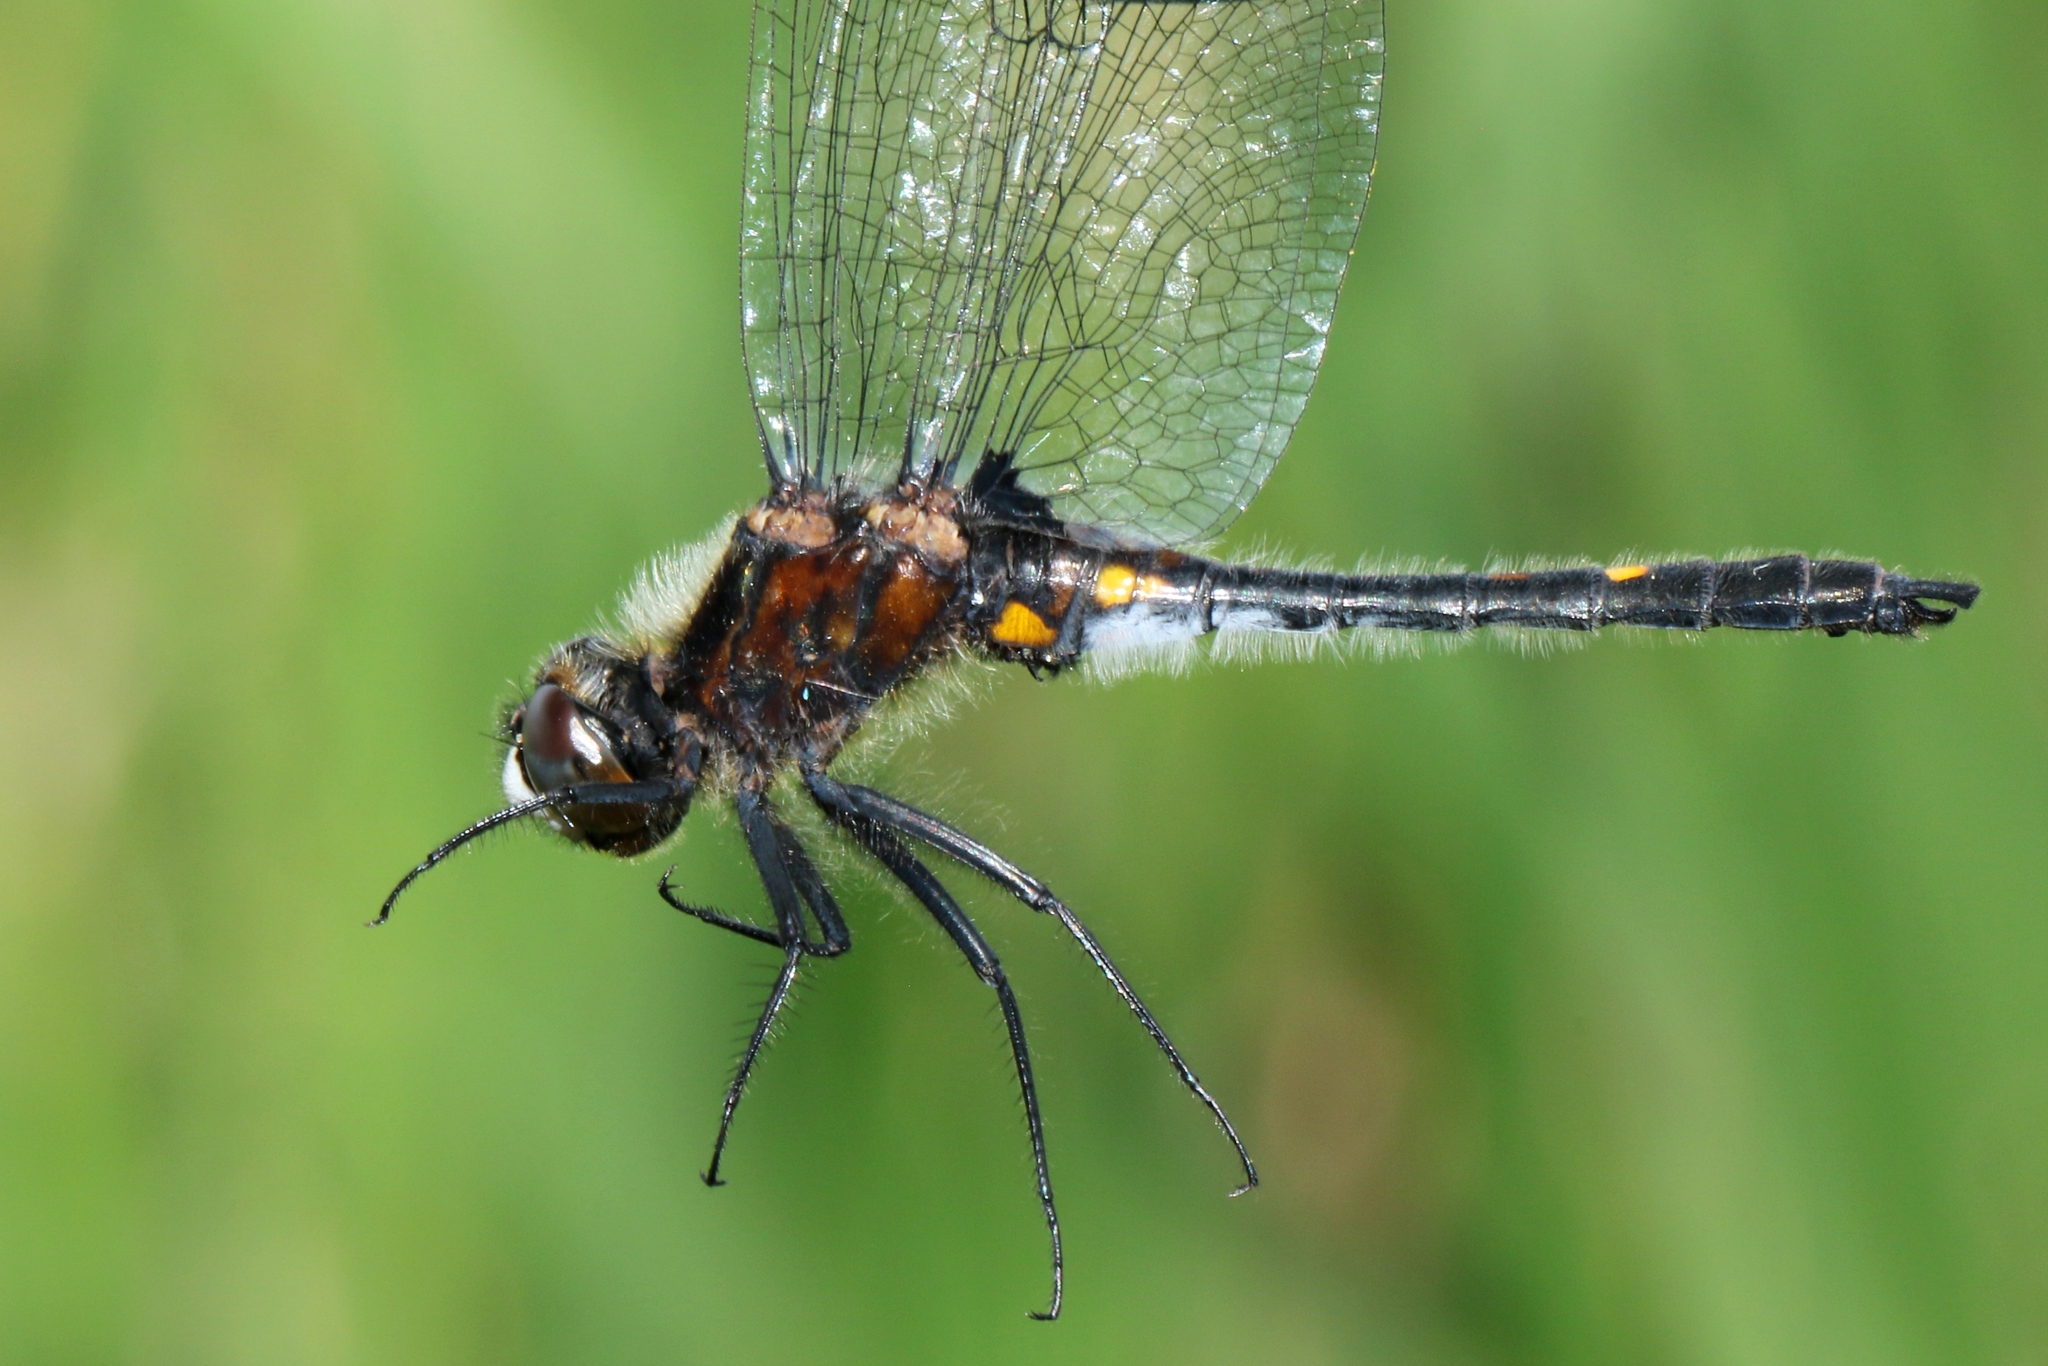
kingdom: Animalia
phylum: Arthropoda
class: Insecta
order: Odonata
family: Libellulidae
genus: Leucorrhinia
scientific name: Leucorrhinia intacta
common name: Dot-tailed whiteface
